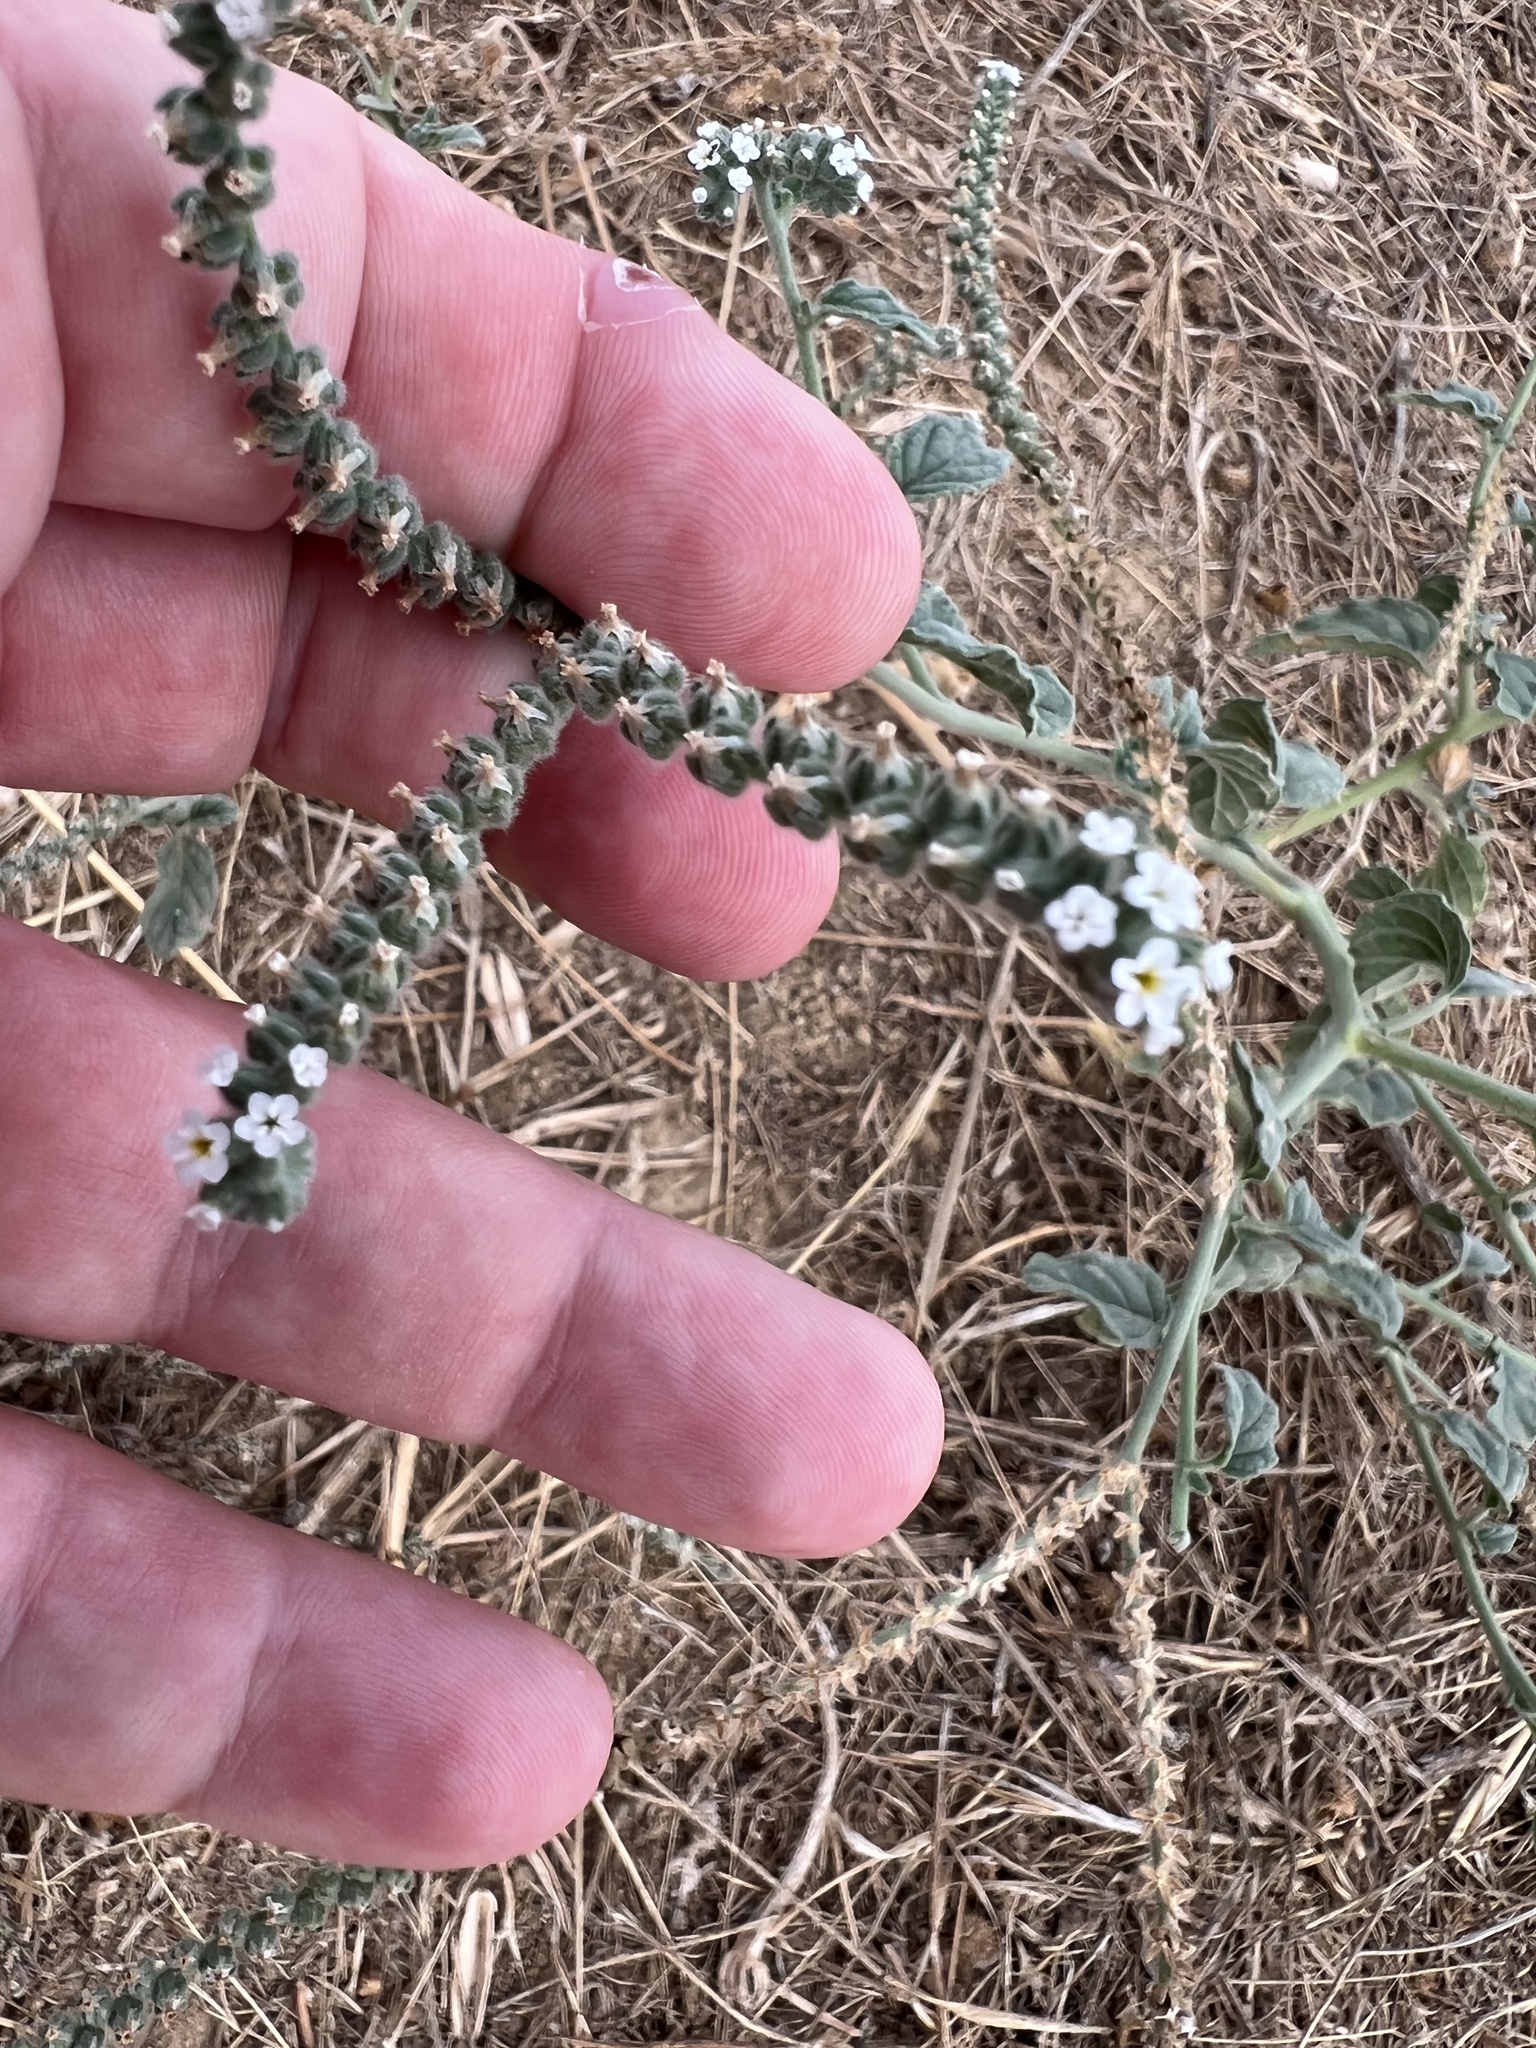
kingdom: Plantae
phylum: Tracheophyta
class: Magnoliopsida
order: Boraginales
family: Heliotropiaceae
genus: Heliotropium
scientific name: Heliotropium europaeum
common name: European heliotrope
